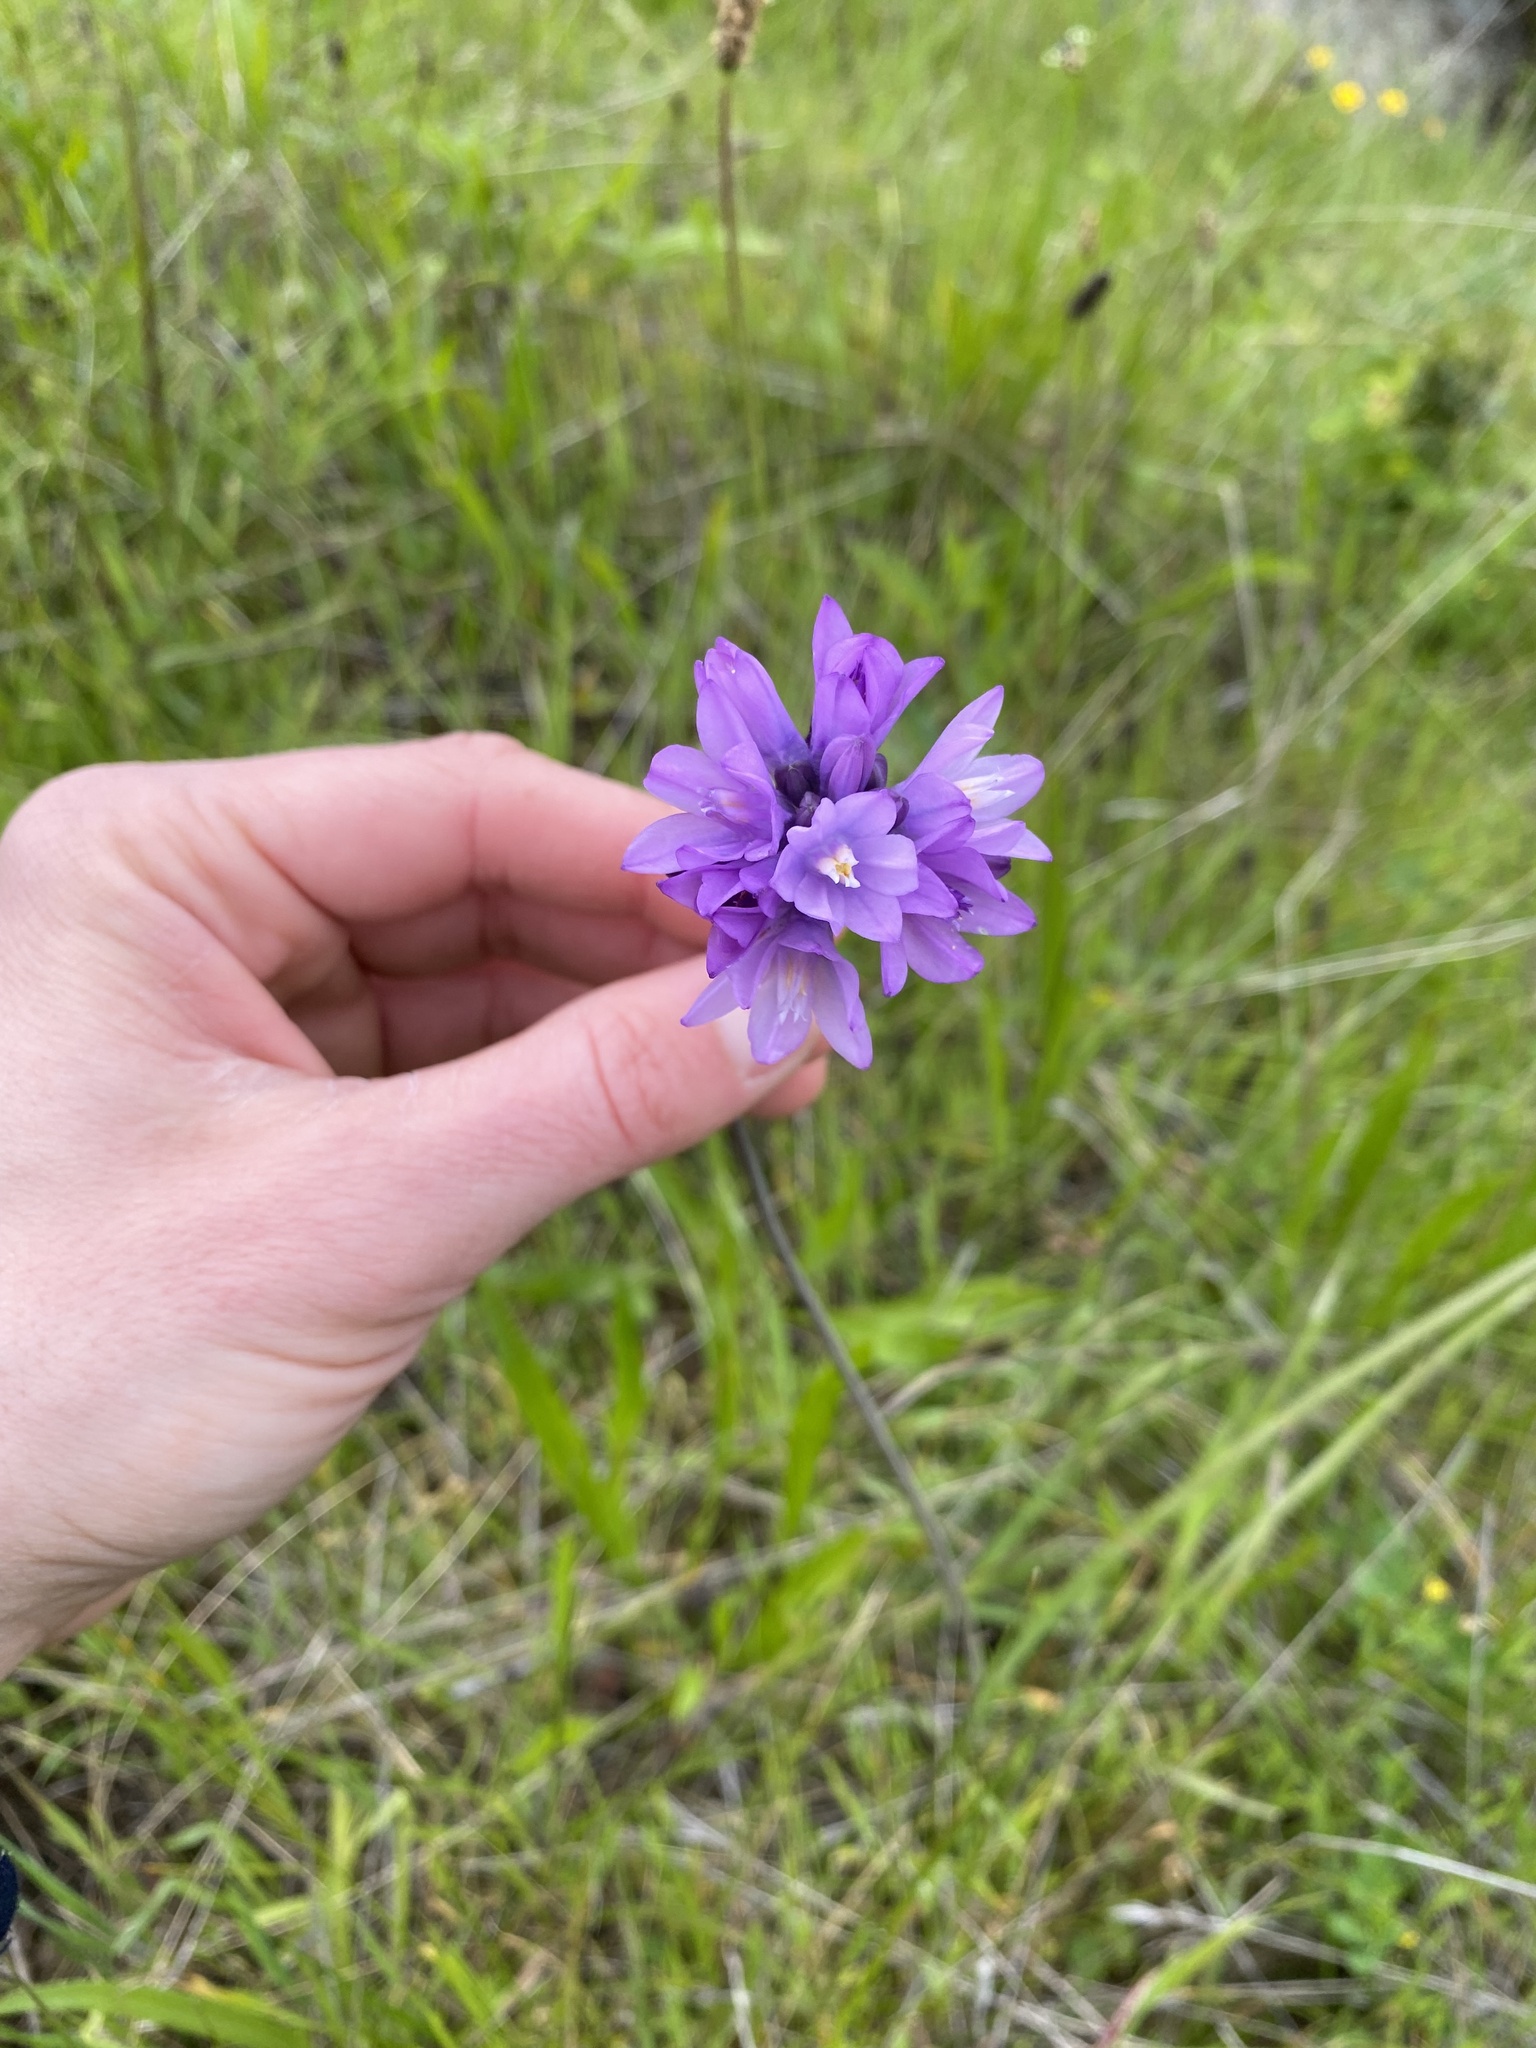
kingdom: Plantae
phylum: Tracheophyta
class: Liliopsida
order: Asparagales
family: Asparagaceae
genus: Dipterostemon
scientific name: Dipterostemon capitatus
